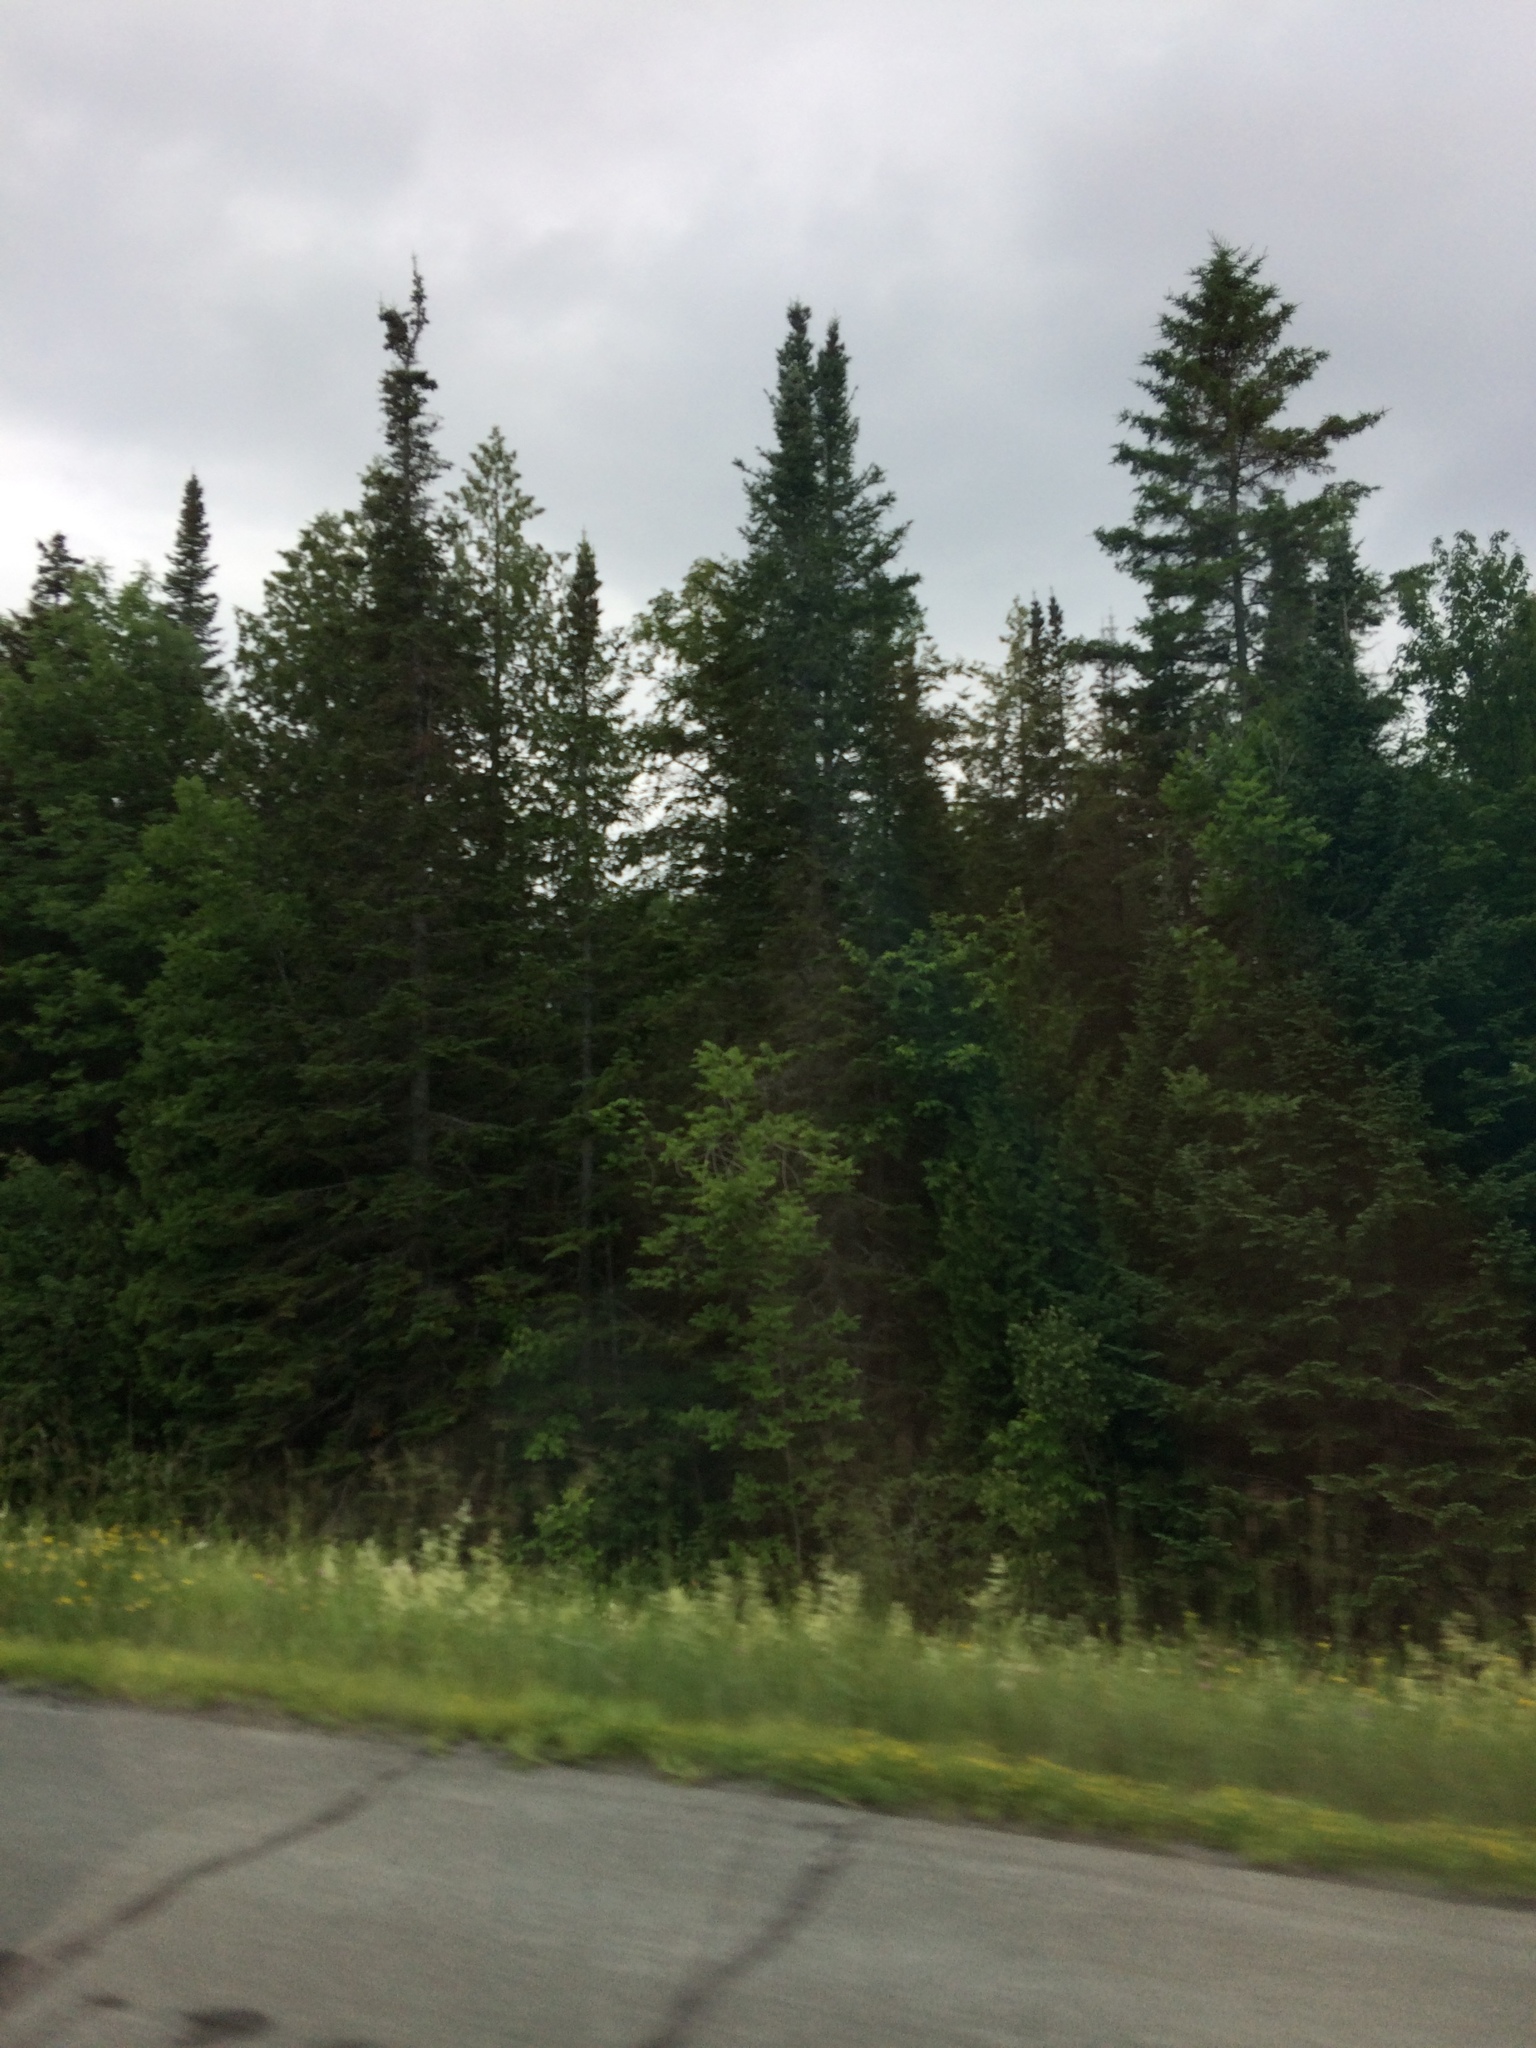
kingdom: Plantae
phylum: Tracheophyta
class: Pinopsida
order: Pinales
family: Pinaceae
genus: Abies
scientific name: Abies balsamea
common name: Balsam fir
